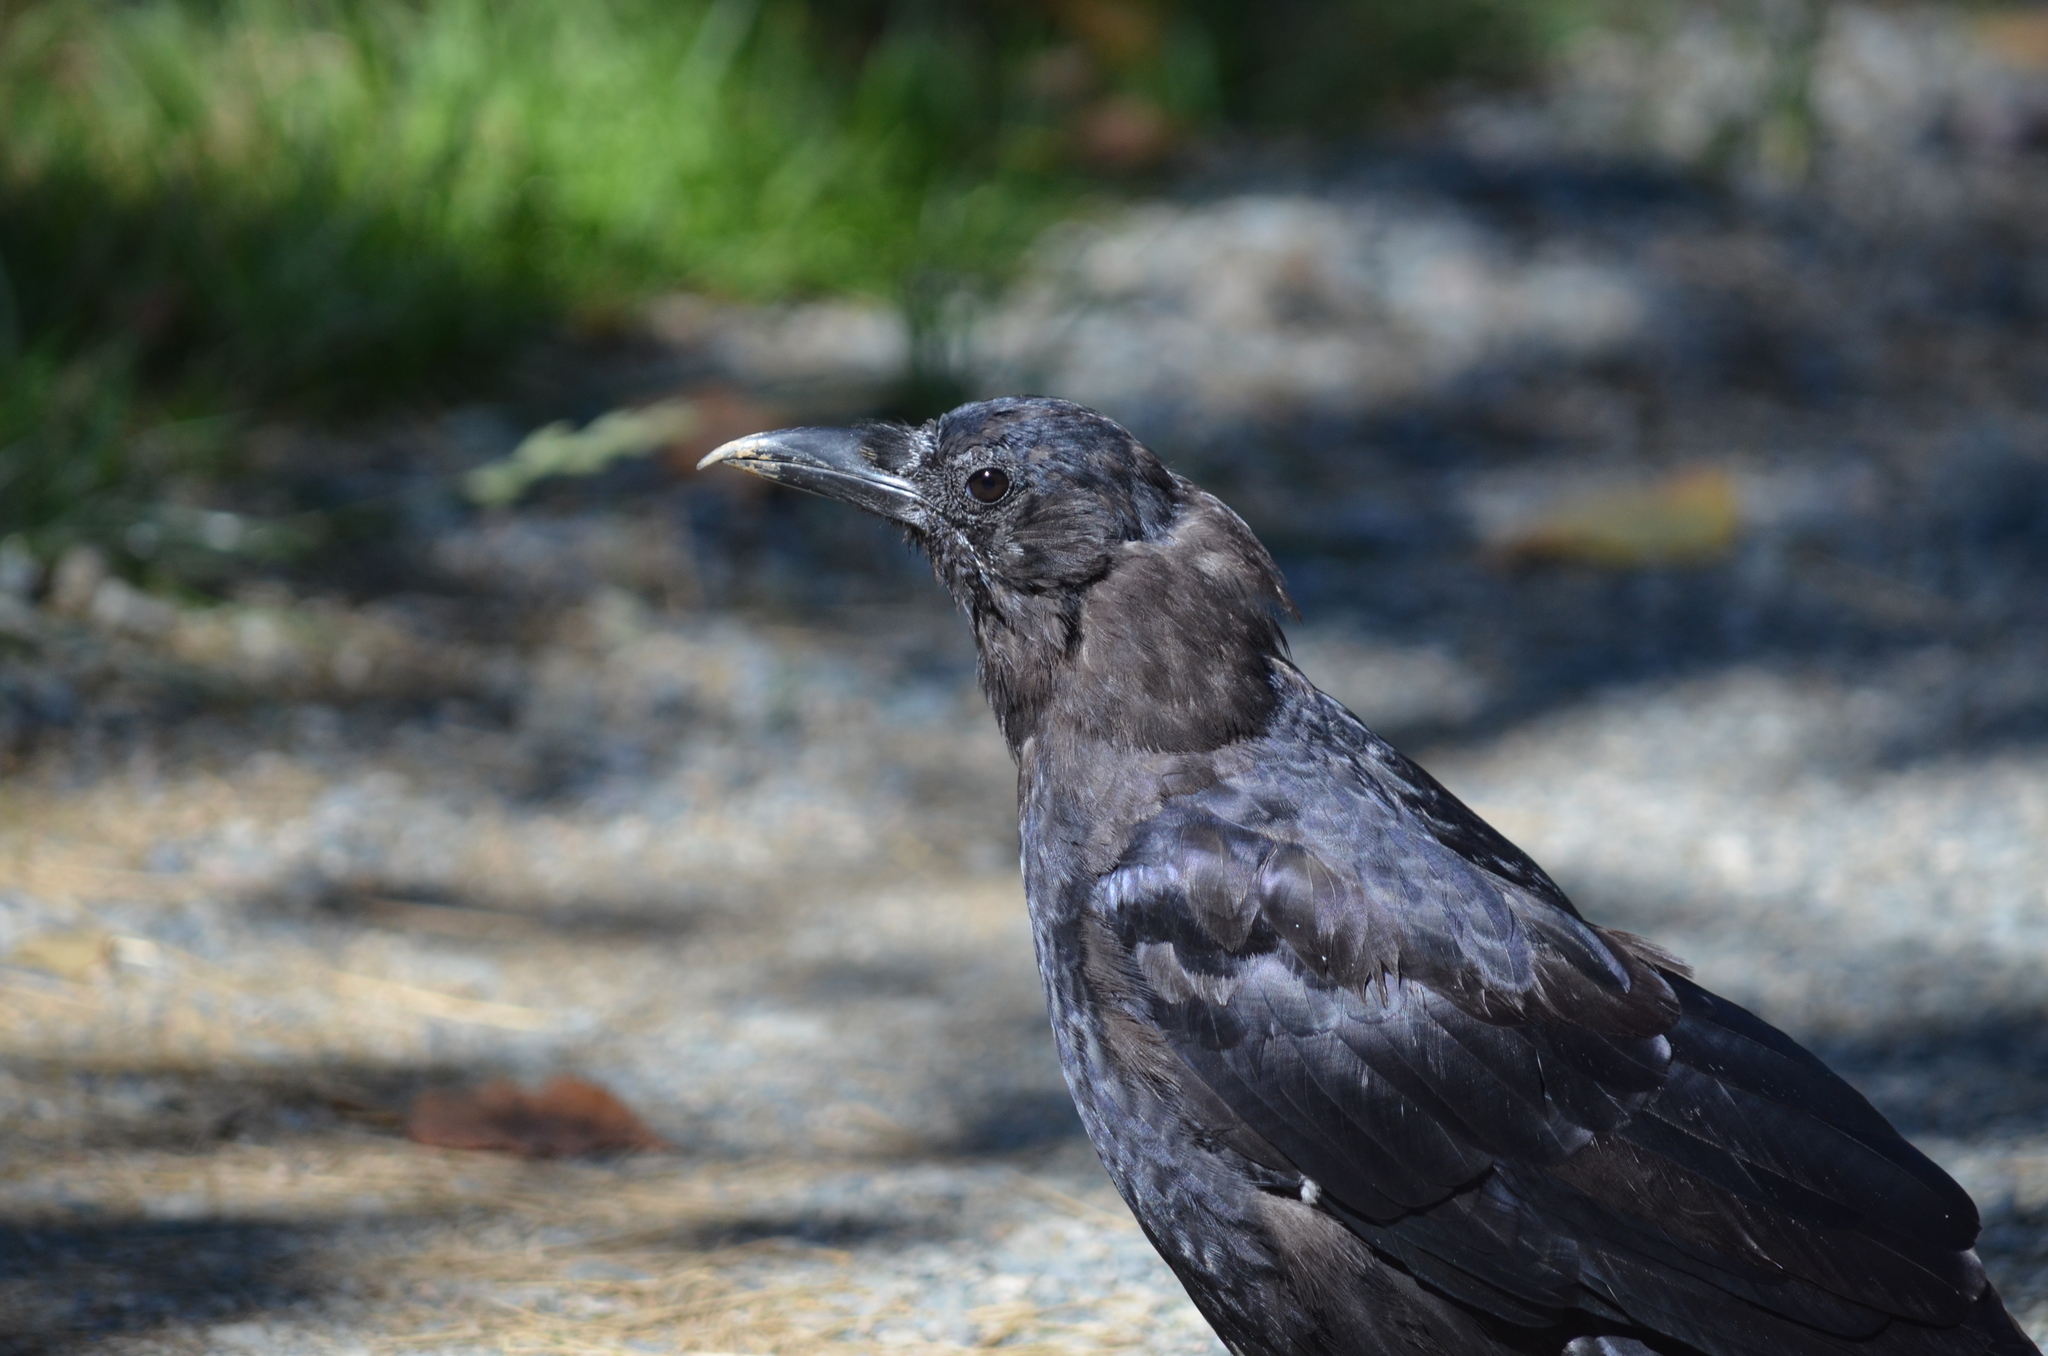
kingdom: Animalia
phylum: Chordata
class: Aves
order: Passeriformes
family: Corvidae
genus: Corvus
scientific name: Corvus brachyrhynchos
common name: American crow
